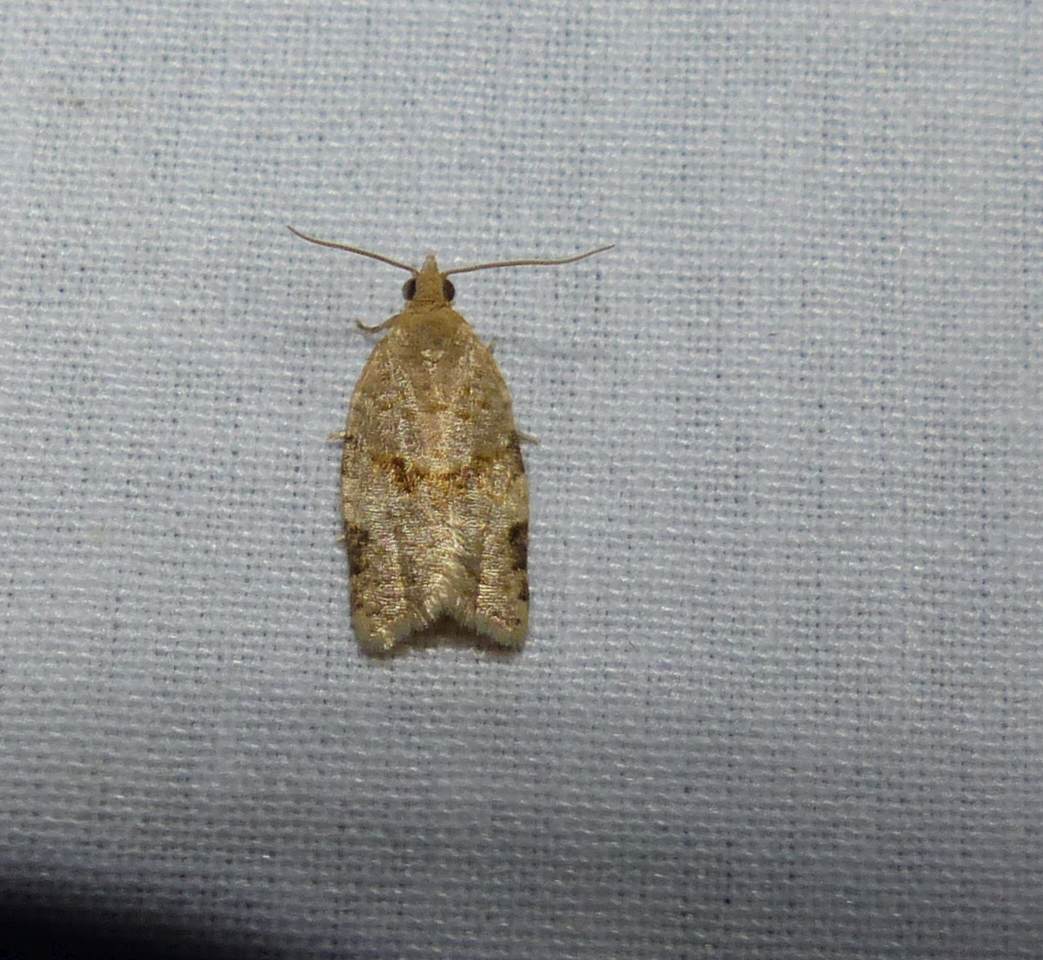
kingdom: Animalia
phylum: Arthropoda
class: Insecta
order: Lepidoptera
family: Tortricidae
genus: Clepsis
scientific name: Clepsis peritana
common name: Garden tortrix
